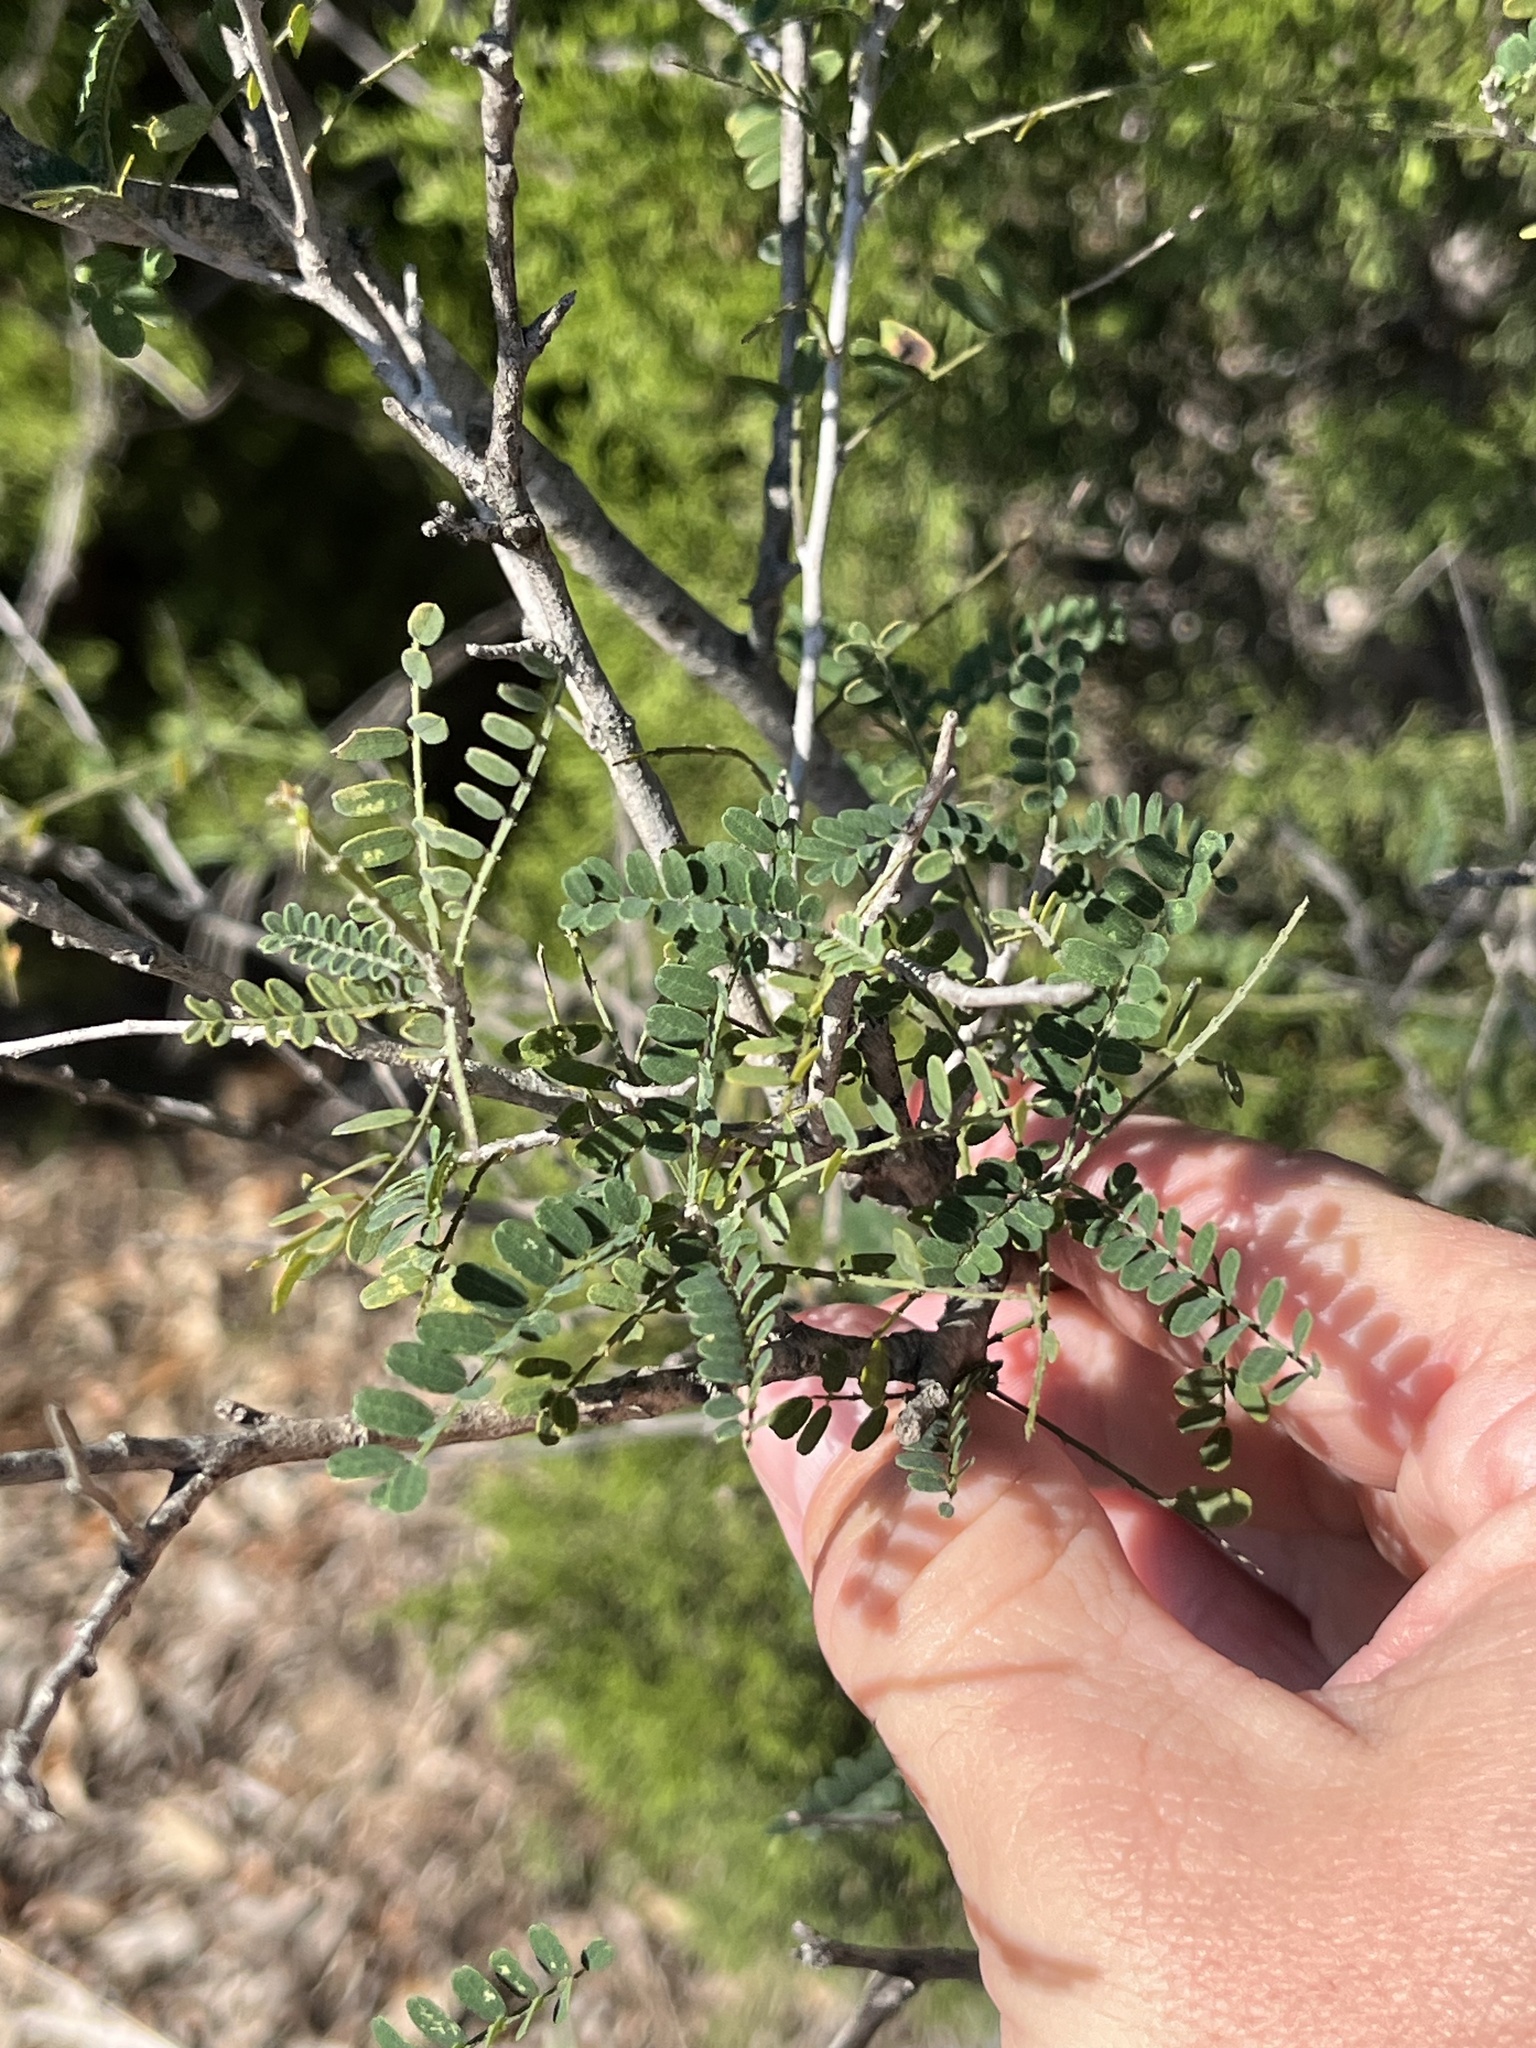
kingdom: Plantae
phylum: Tracheophyta
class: Magnoliopsida
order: Fabales
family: Fabaceae
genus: Eysenhardtia
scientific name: Eysenhardtia texana
